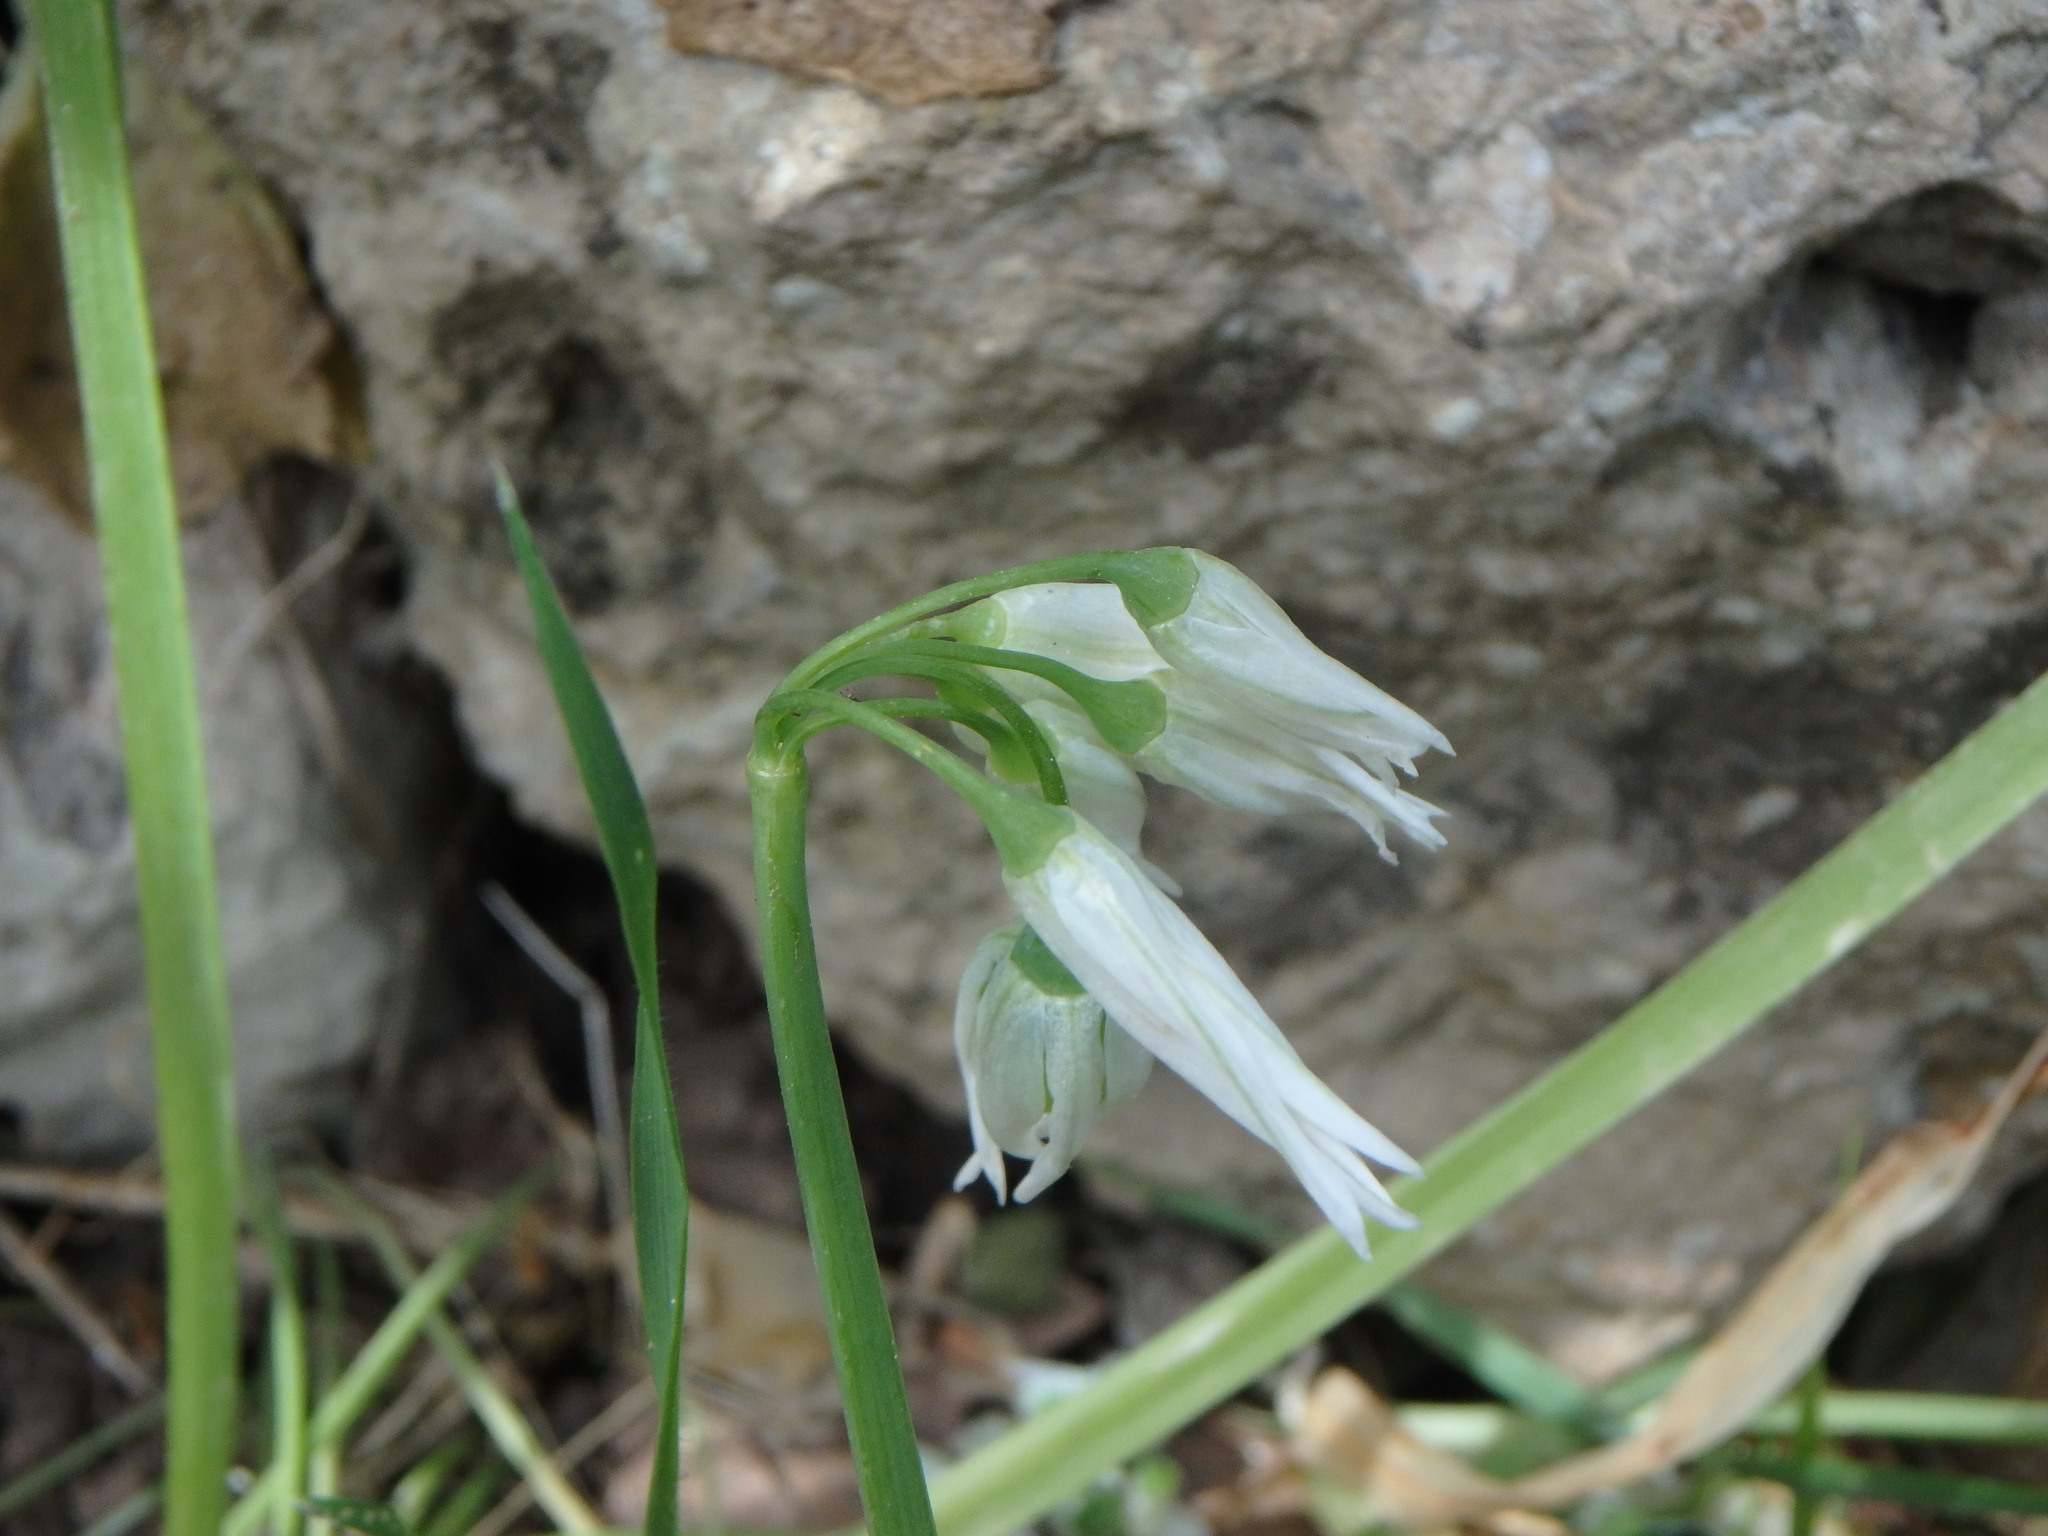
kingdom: Plantae
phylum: Tracheophyta
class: Liliopsida
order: Asparagales
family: Amaryllidaceae
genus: Allium
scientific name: Allium triquetrum
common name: Three-cornered garlic
